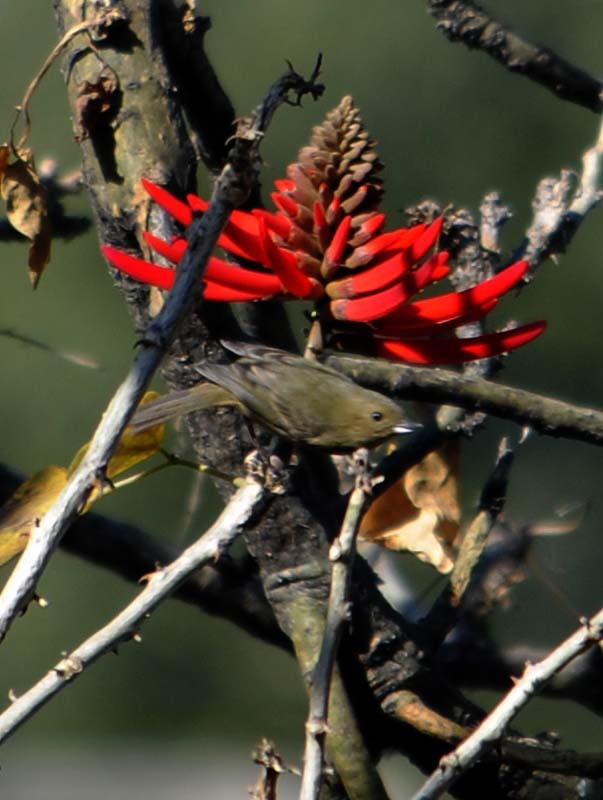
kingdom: Animalia
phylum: Chordata
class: Aves
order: Passeriformes
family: Thraupidae
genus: Diglossa
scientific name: Diglossa baritula
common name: Cinnamon-bellied flowerpiercer
